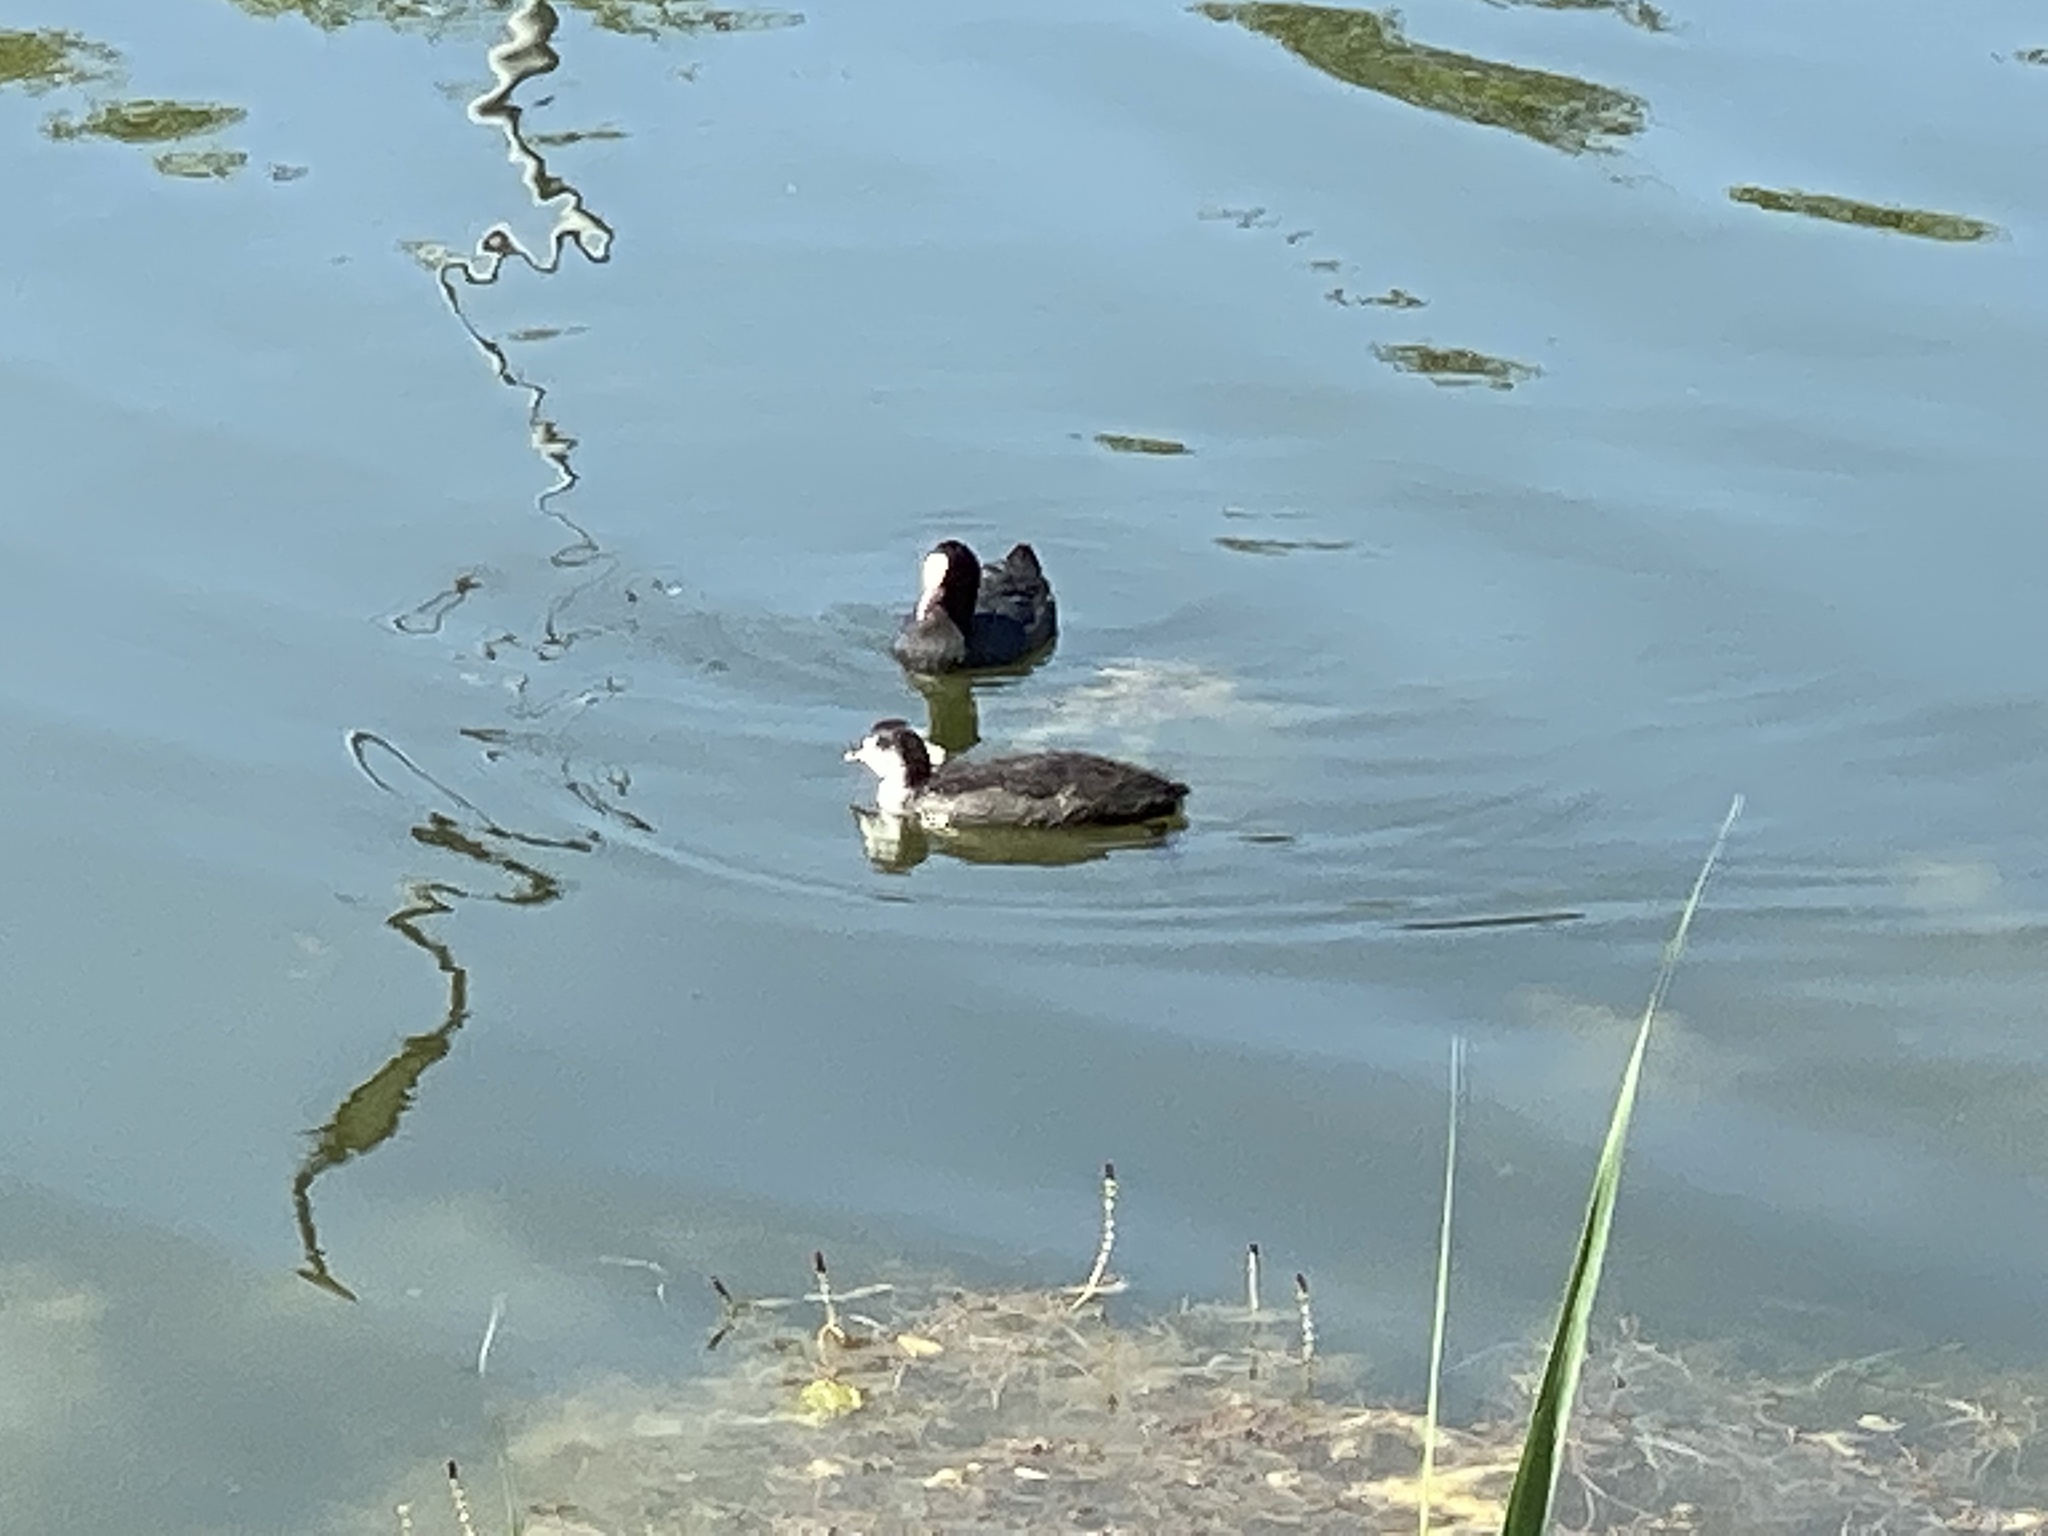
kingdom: Animalia
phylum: Chordata
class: Aves
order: Gruiformes
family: Rallidae
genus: Fulica
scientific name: Fulica atra
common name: Eurasian coot
